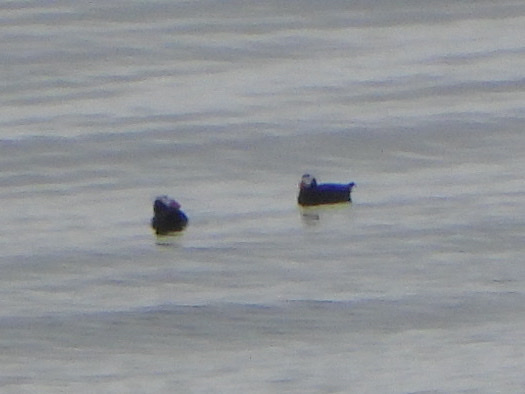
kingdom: Animalia
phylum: Chordata
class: Aves
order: Charadriiformes
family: Alcidae
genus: Fratercula
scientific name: Fratercula cirrhata
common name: Tufted puffin
